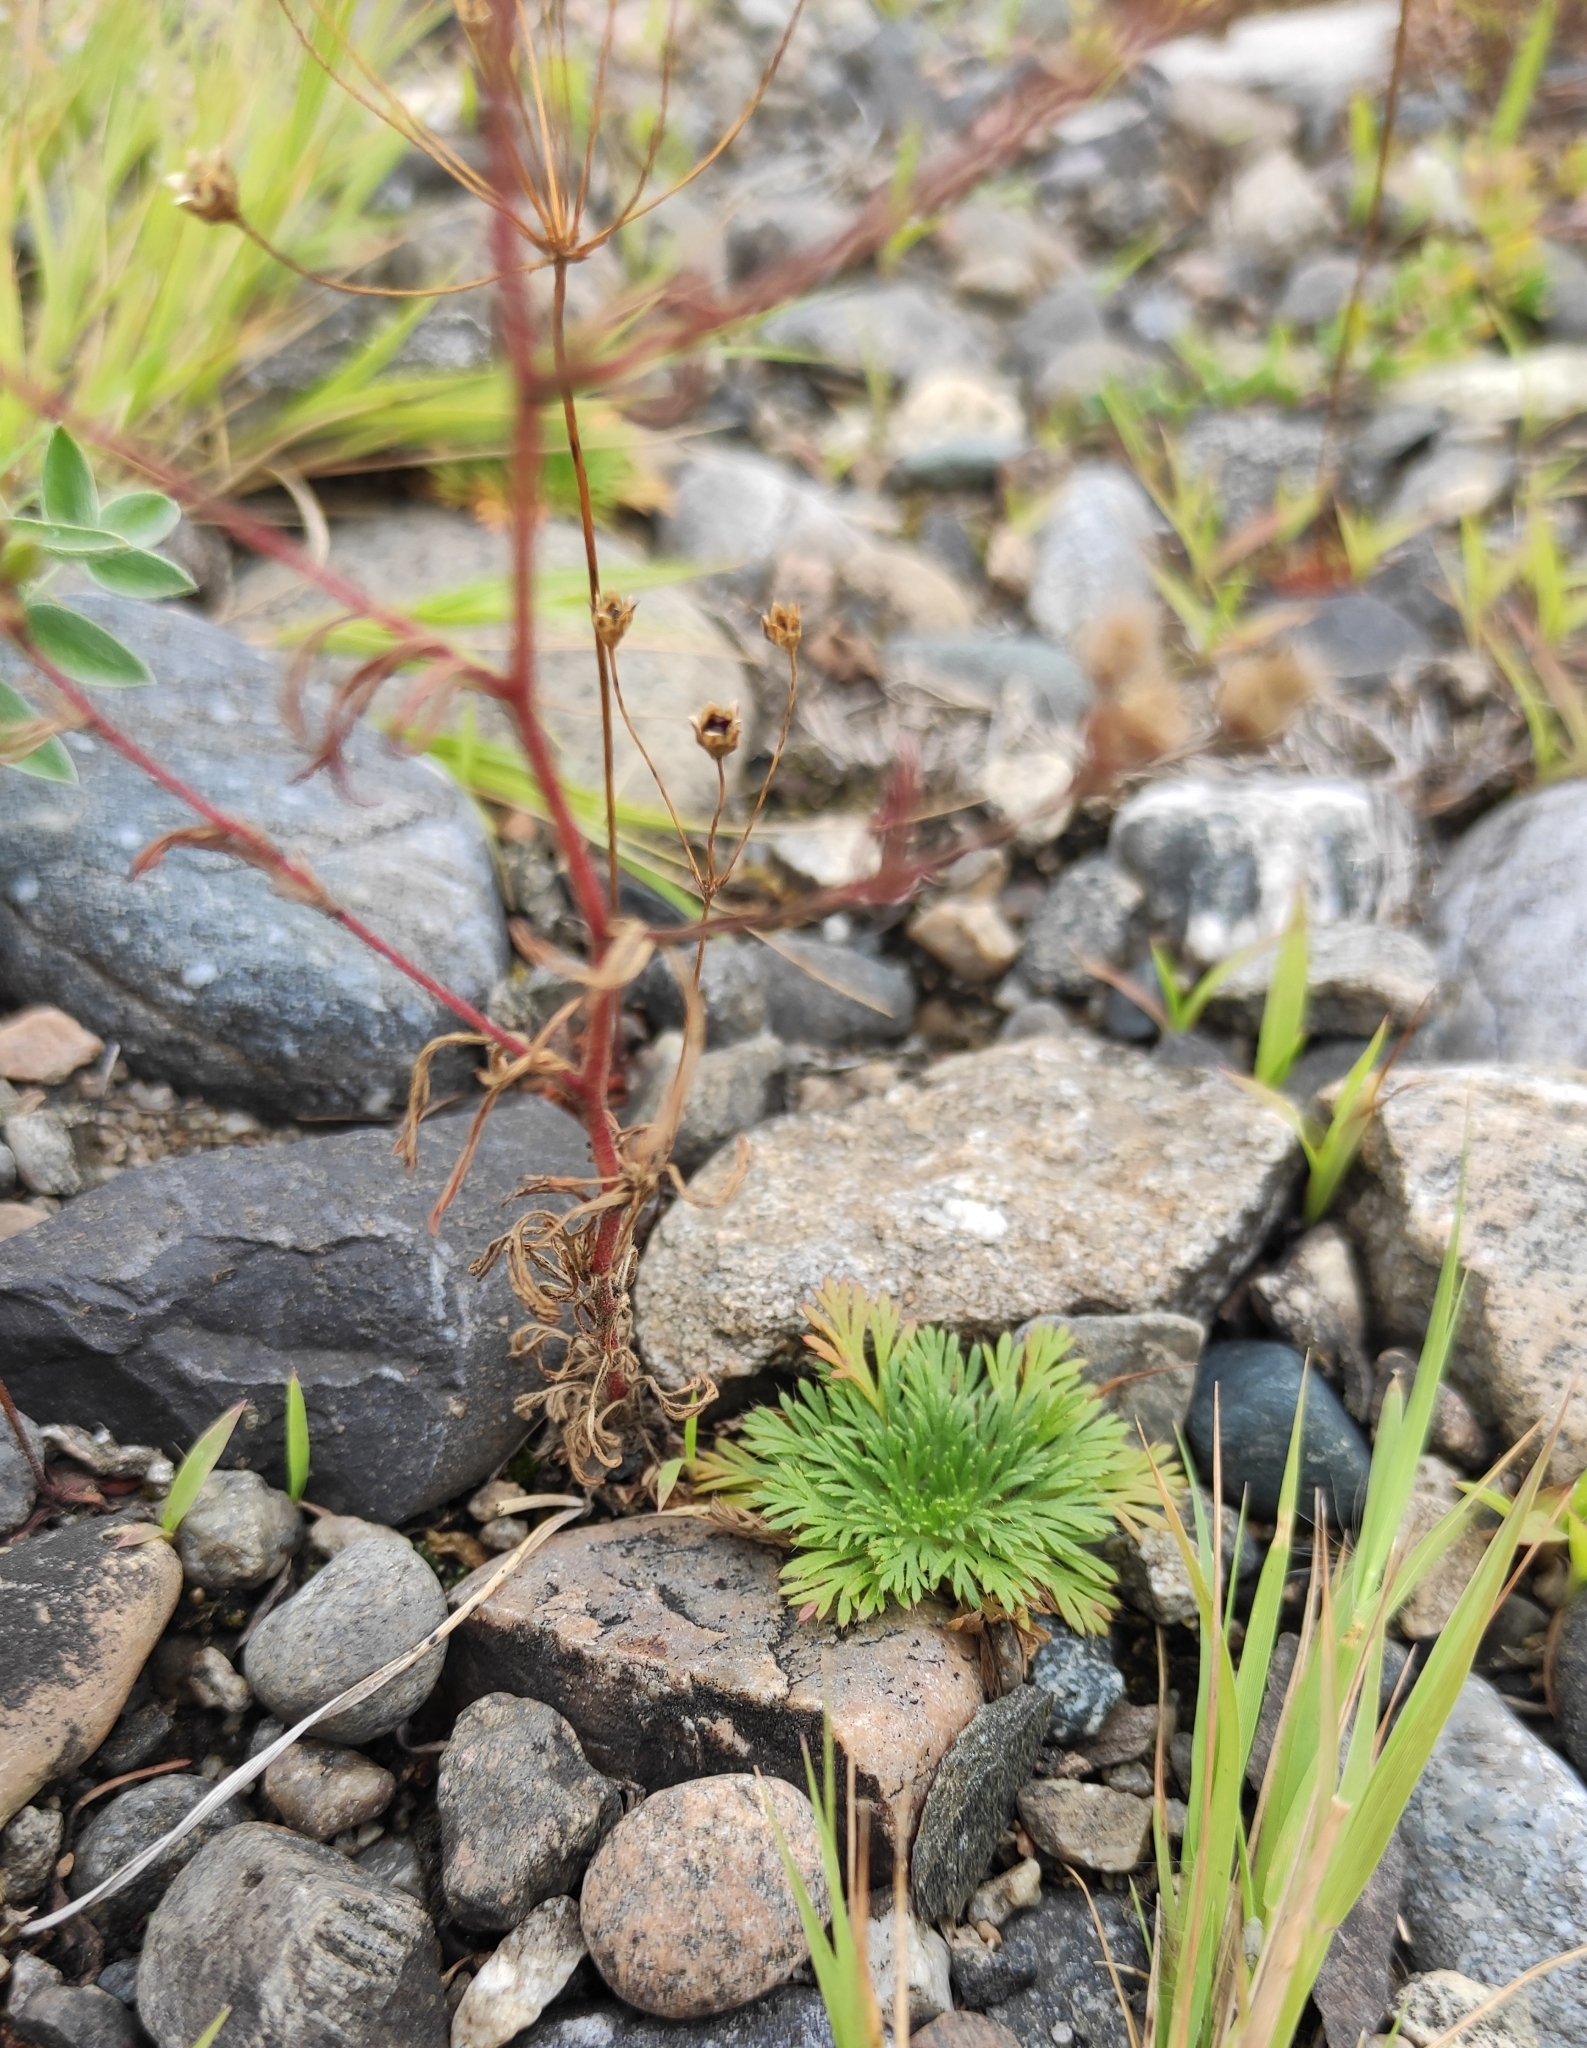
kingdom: Plantae
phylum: Tracheophyta
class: Magnoliopsida
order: Rosales
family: Rosaceae
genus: Chamaerhodos
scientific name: Chamaerhodos erecta
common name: American chamaerhodos
